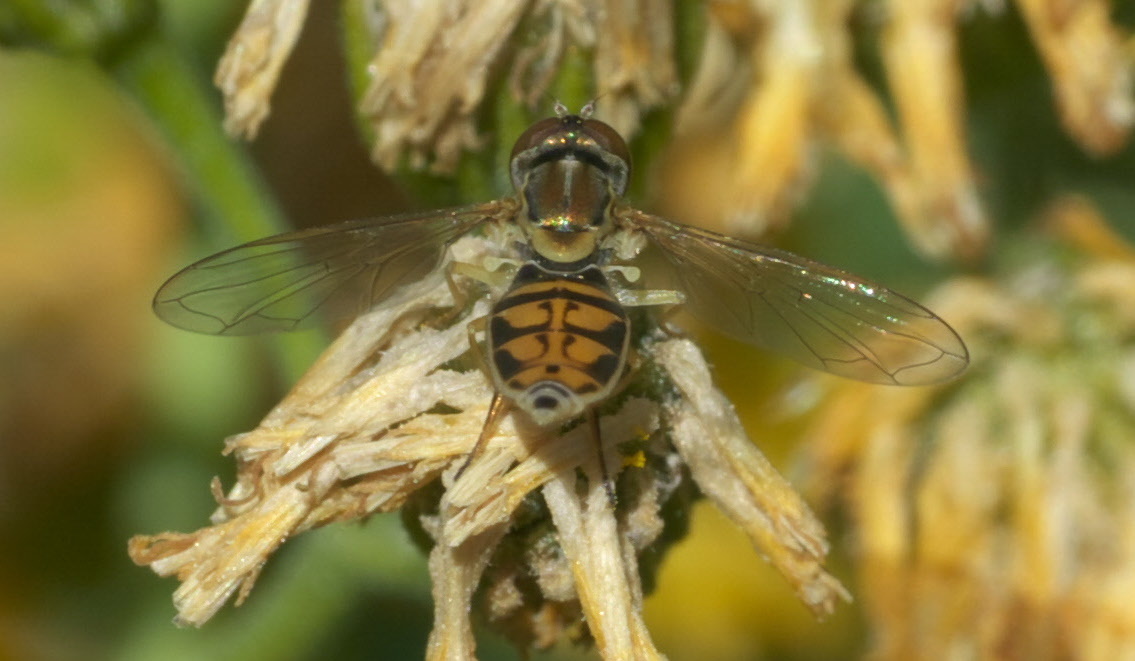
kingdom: Animalia
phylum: Arthropoda
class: Insecta
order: Diptera
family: Syrphidae
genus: Toxomerus
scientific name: Toxomerus marginatus
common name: Syrphid fly
